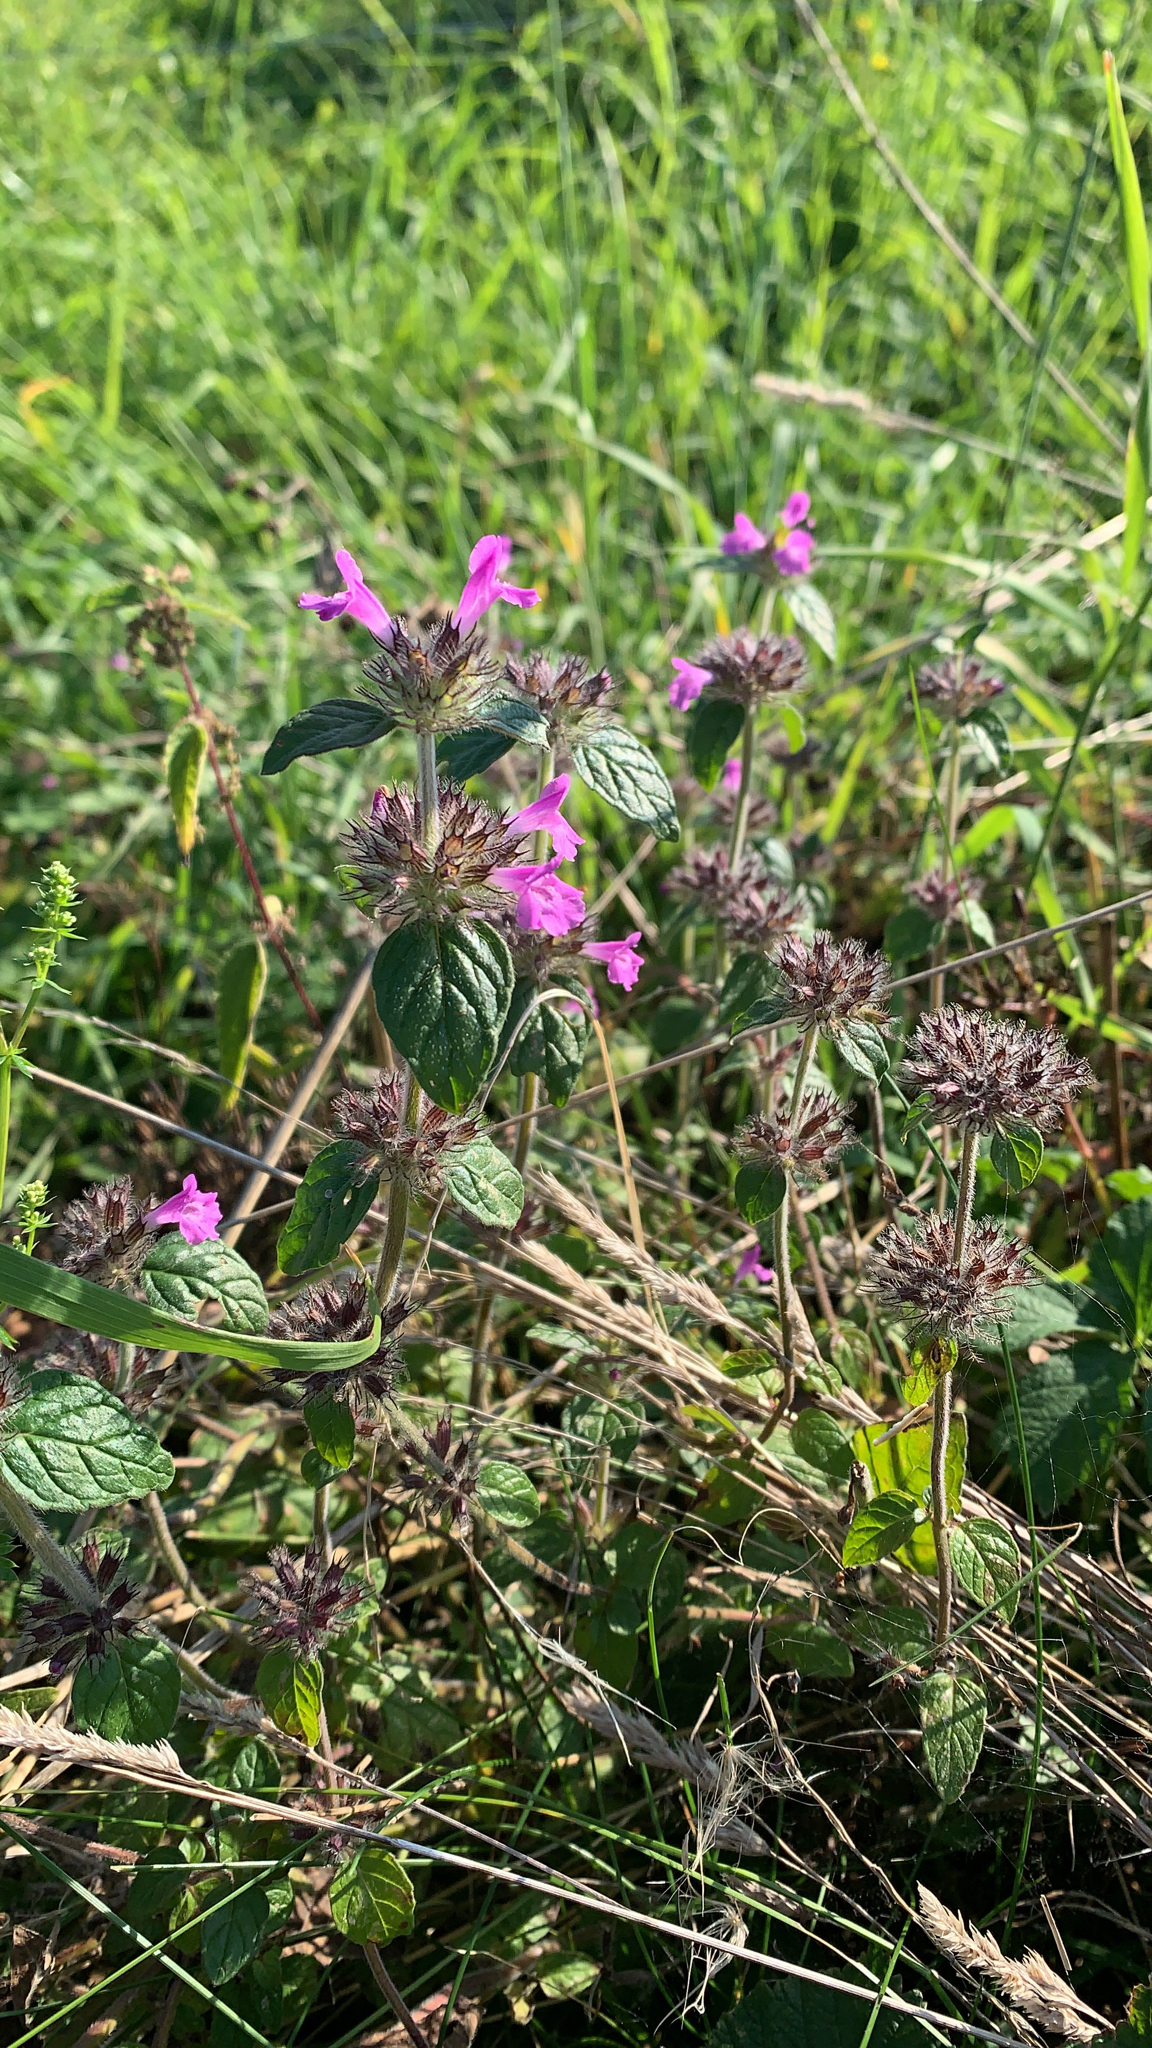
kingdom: Plantae
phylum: Tracheophyta
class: Magnoliopsida
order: Lamiales
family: Lamiaceae
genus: Clinopodium
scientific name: Clinopodium vulgare
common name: Wild basil
